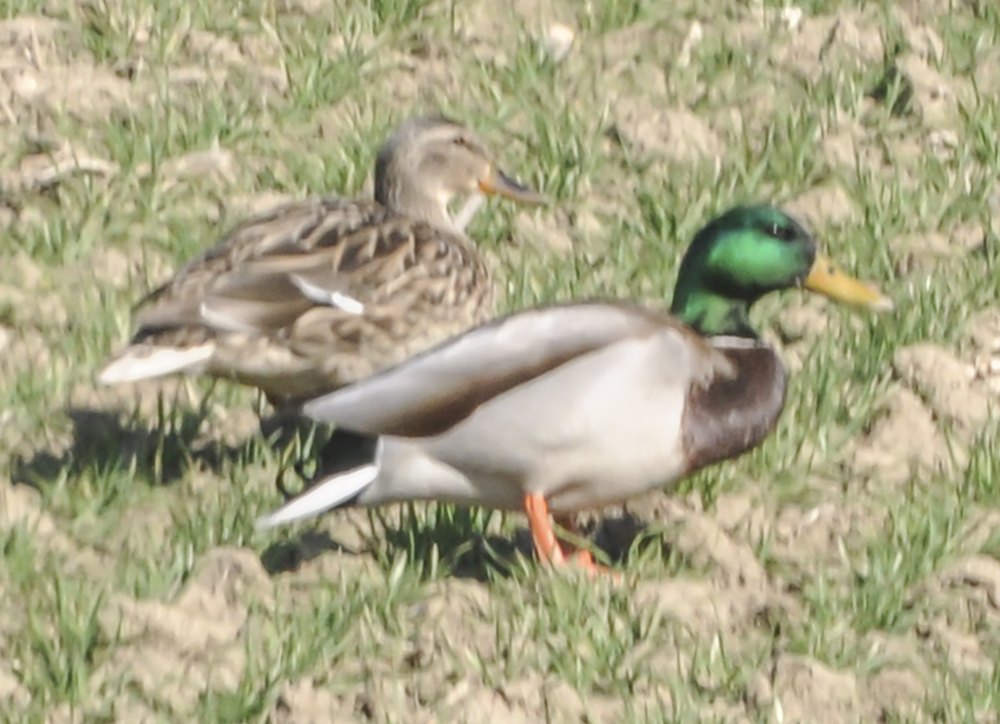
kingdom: Animalia
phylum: Chordata
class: Aves
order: Anseriformes
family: Anatidae
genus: Anas
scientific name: Anas platyrhynchos
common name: Mallard
